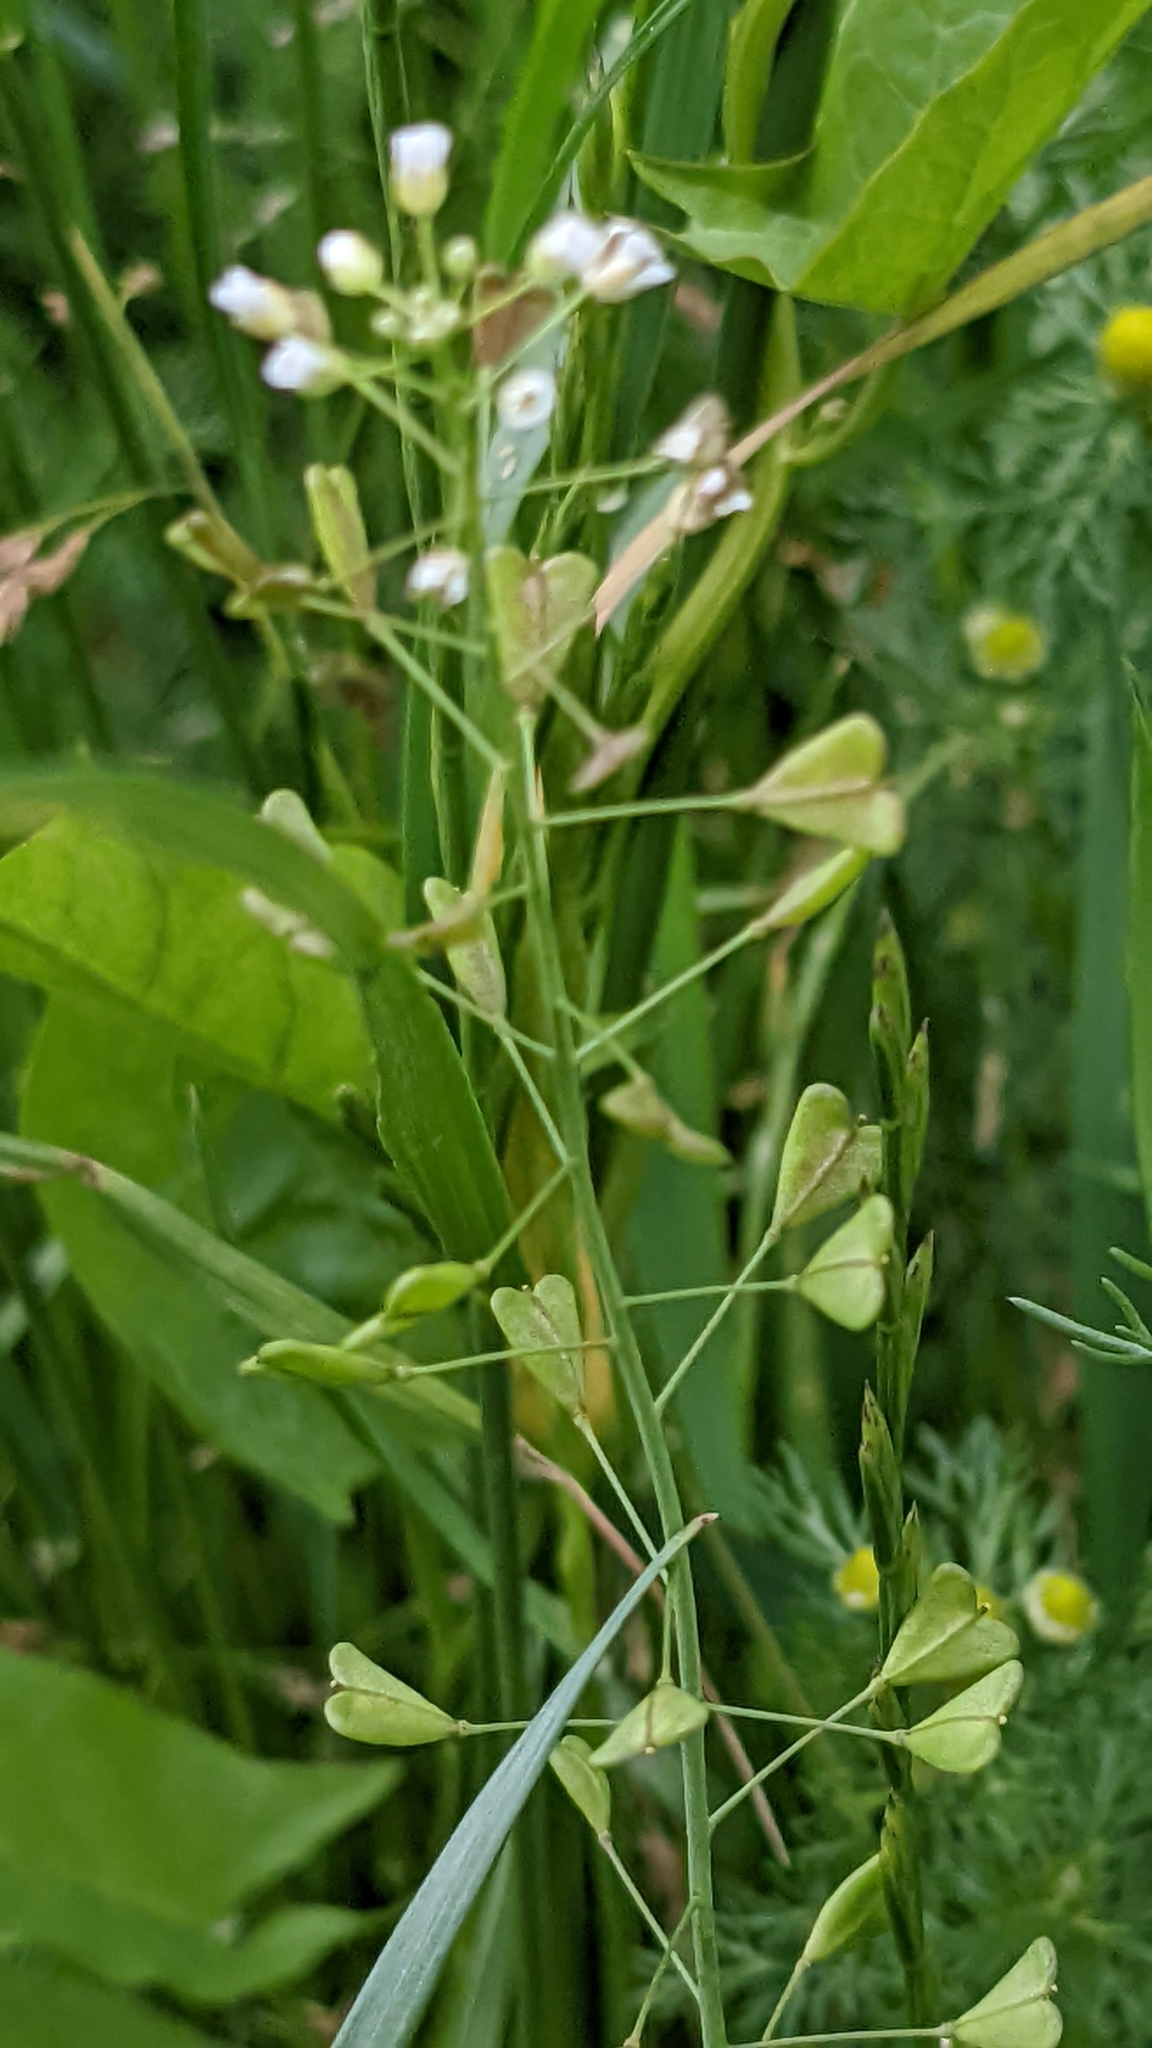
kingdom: Plantae
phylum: Tracheophyta
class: Magnoliopsida
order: Brassicales
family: Brassicaceae
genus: Capsella
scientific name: Capsella bursa-pastoris
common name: Shepherd's purse
